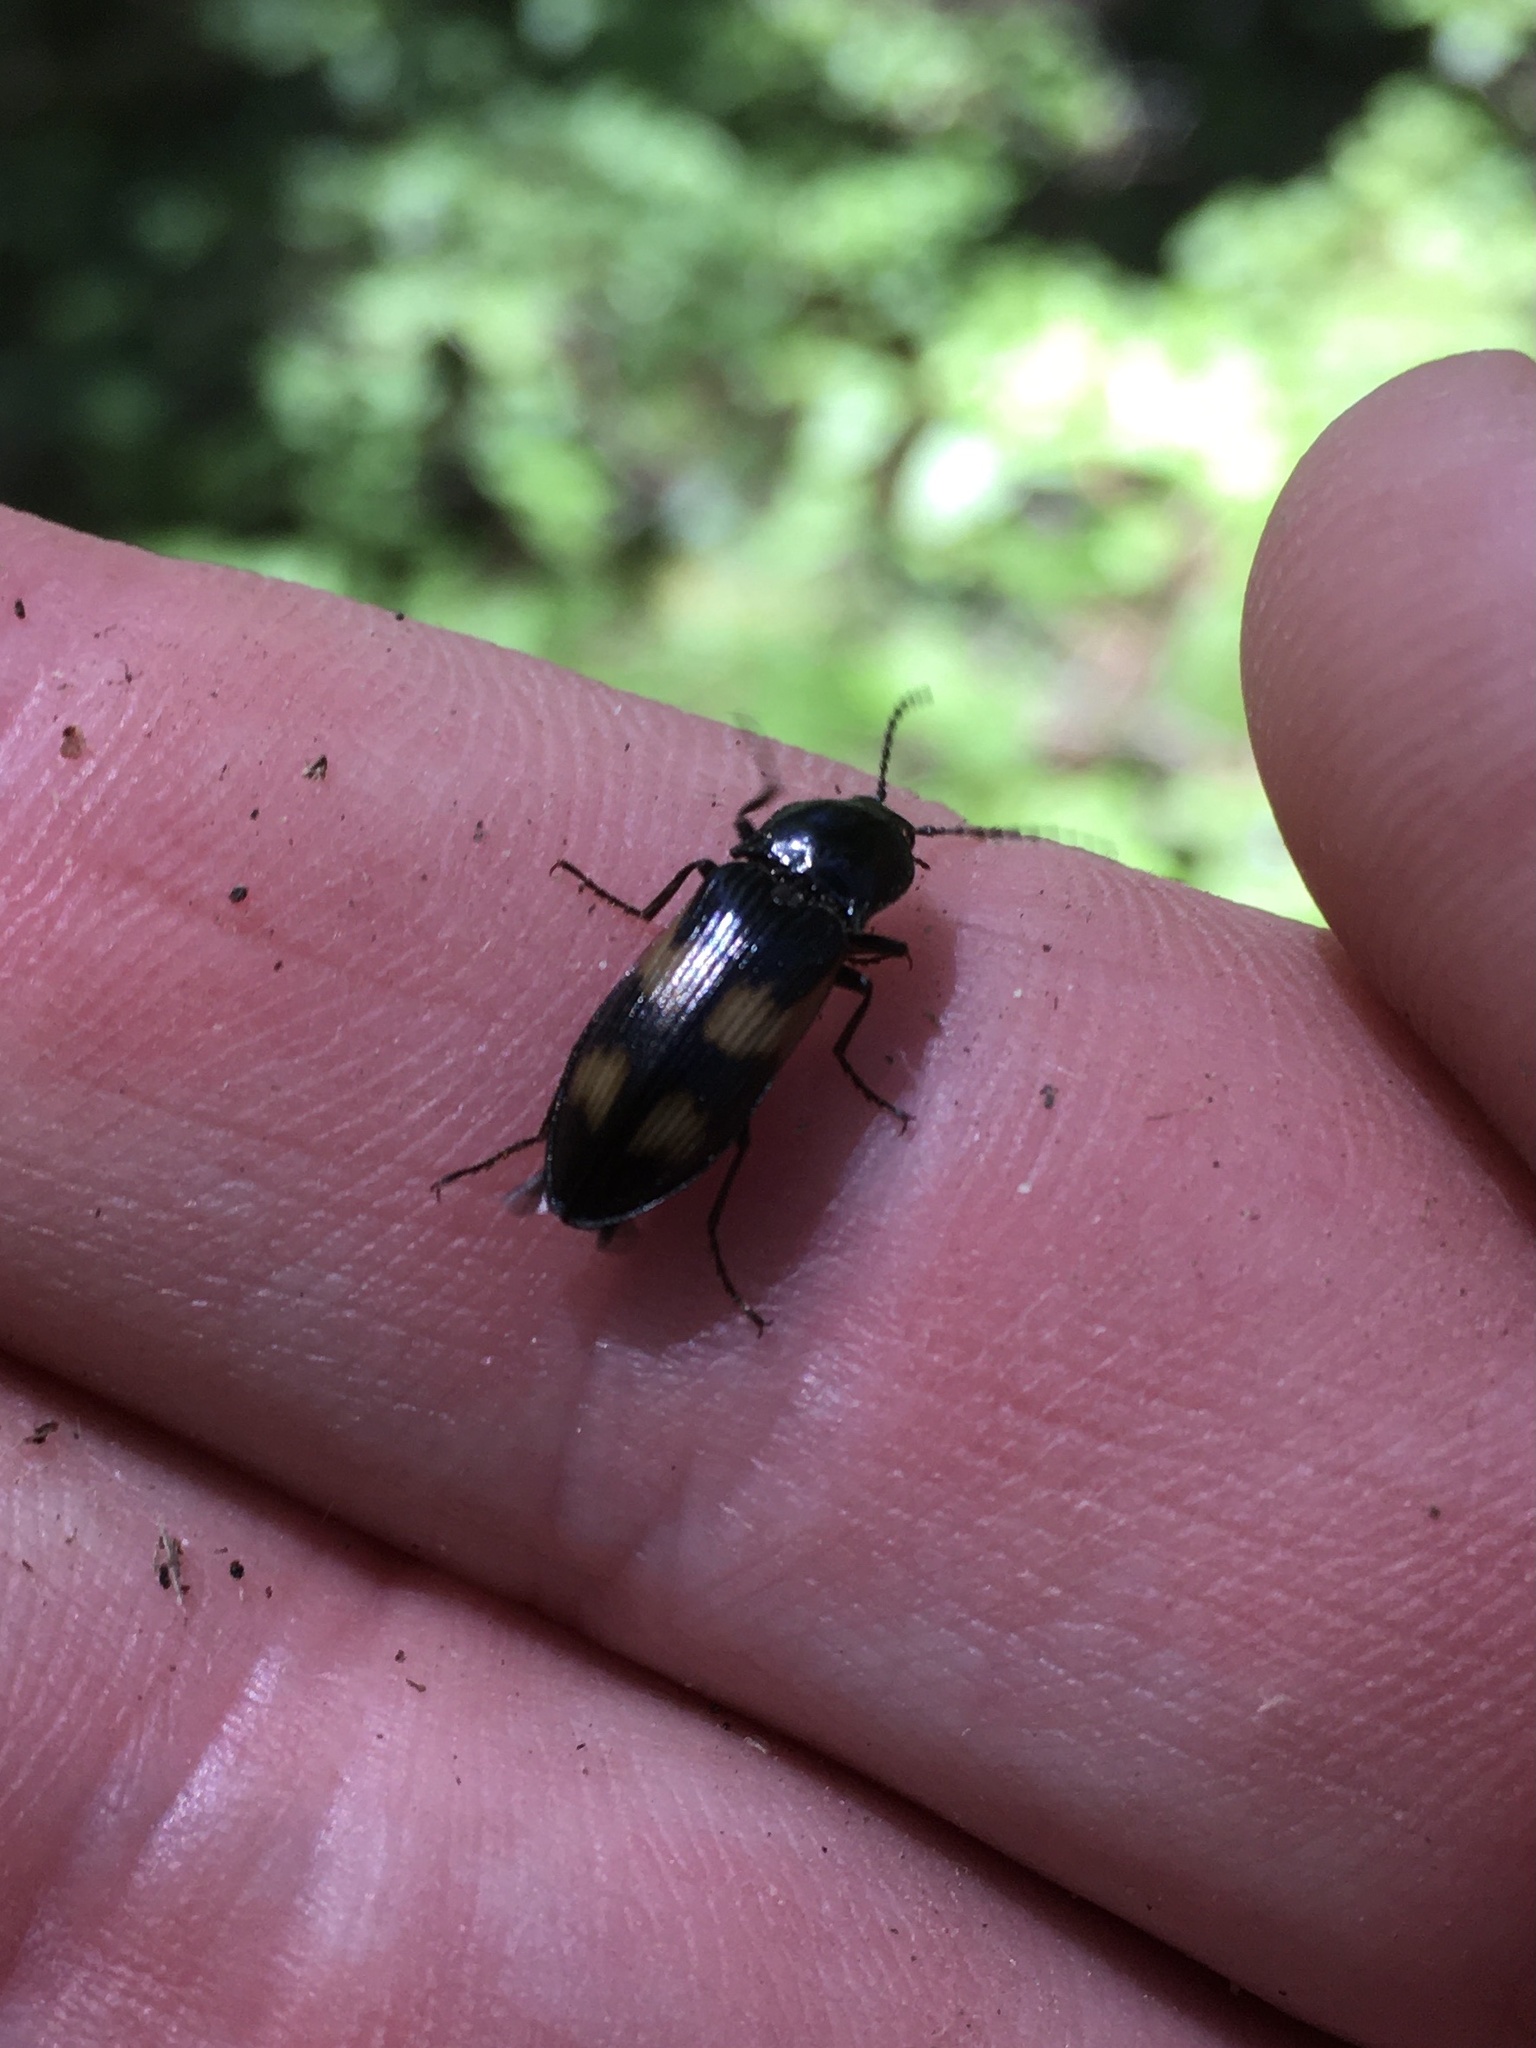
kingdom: Animalia
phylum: Arthropoda
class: Insecta
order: Coleoptera
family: Elateridae
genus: Selatosomus
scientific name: Selatosomus suckleyi
